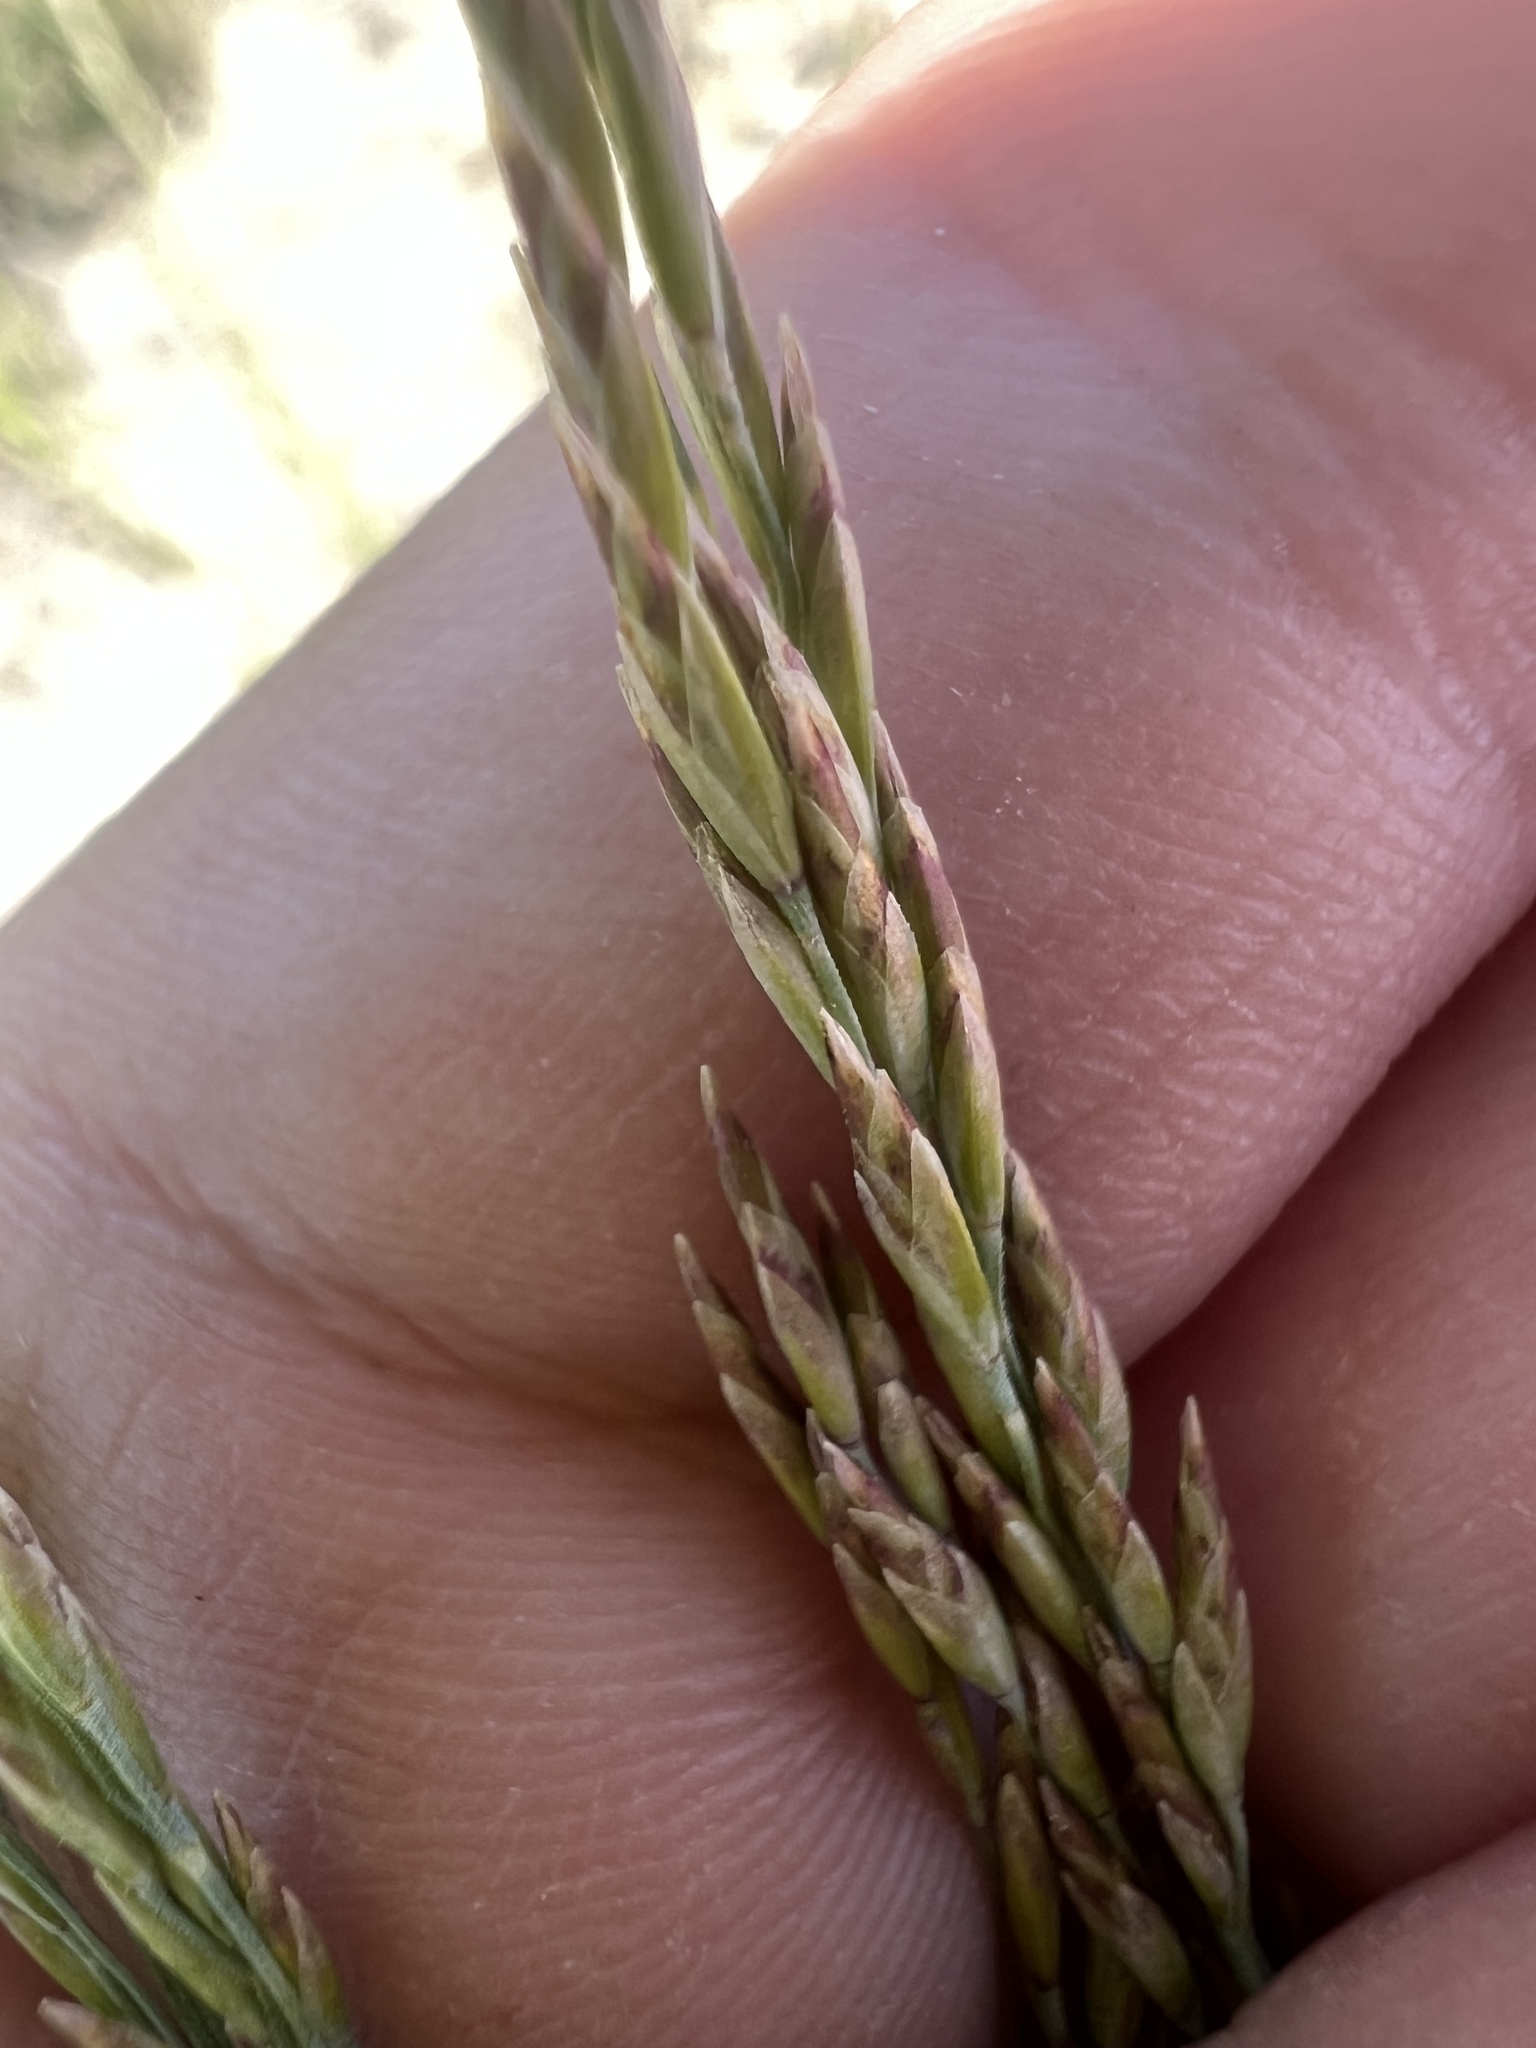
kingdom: Plantae
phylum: Tracheophyta
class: Liliopsida
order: Poales
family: Poaceae
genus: Poa
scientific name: Poa secunda
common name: Sandberg bluegrass
